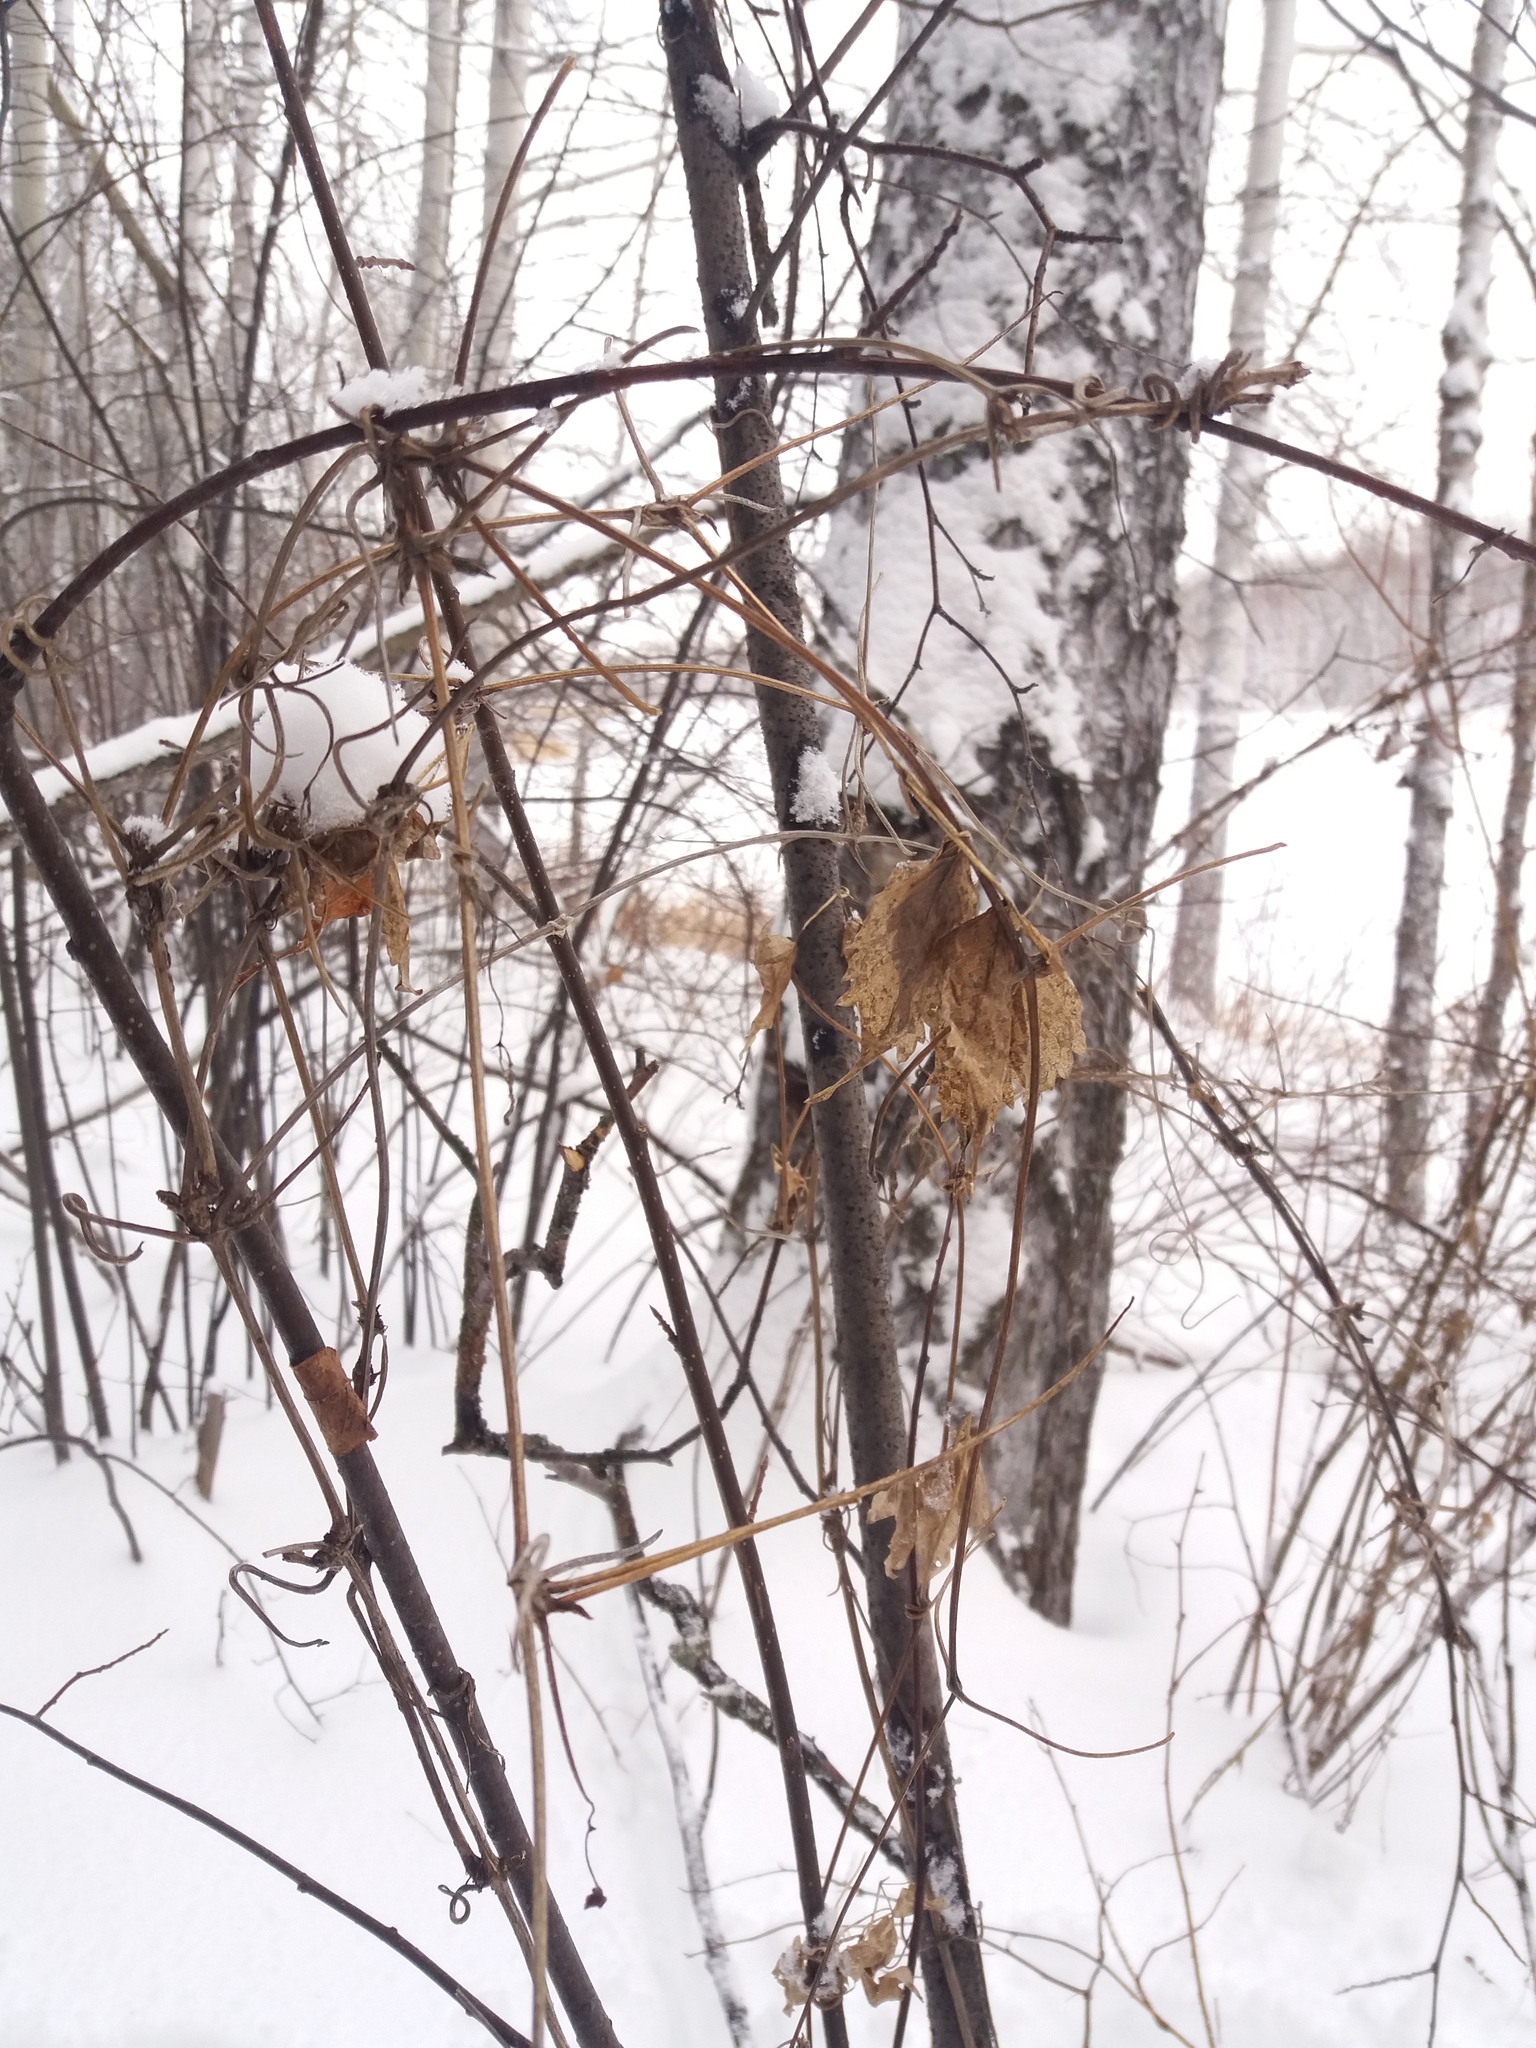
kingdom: Plantae
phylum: Tracheophyta
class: Magnoliopsida
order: Ranunculales
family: Ranunculaceae
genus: Clematis
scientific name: Clematis sibirica
